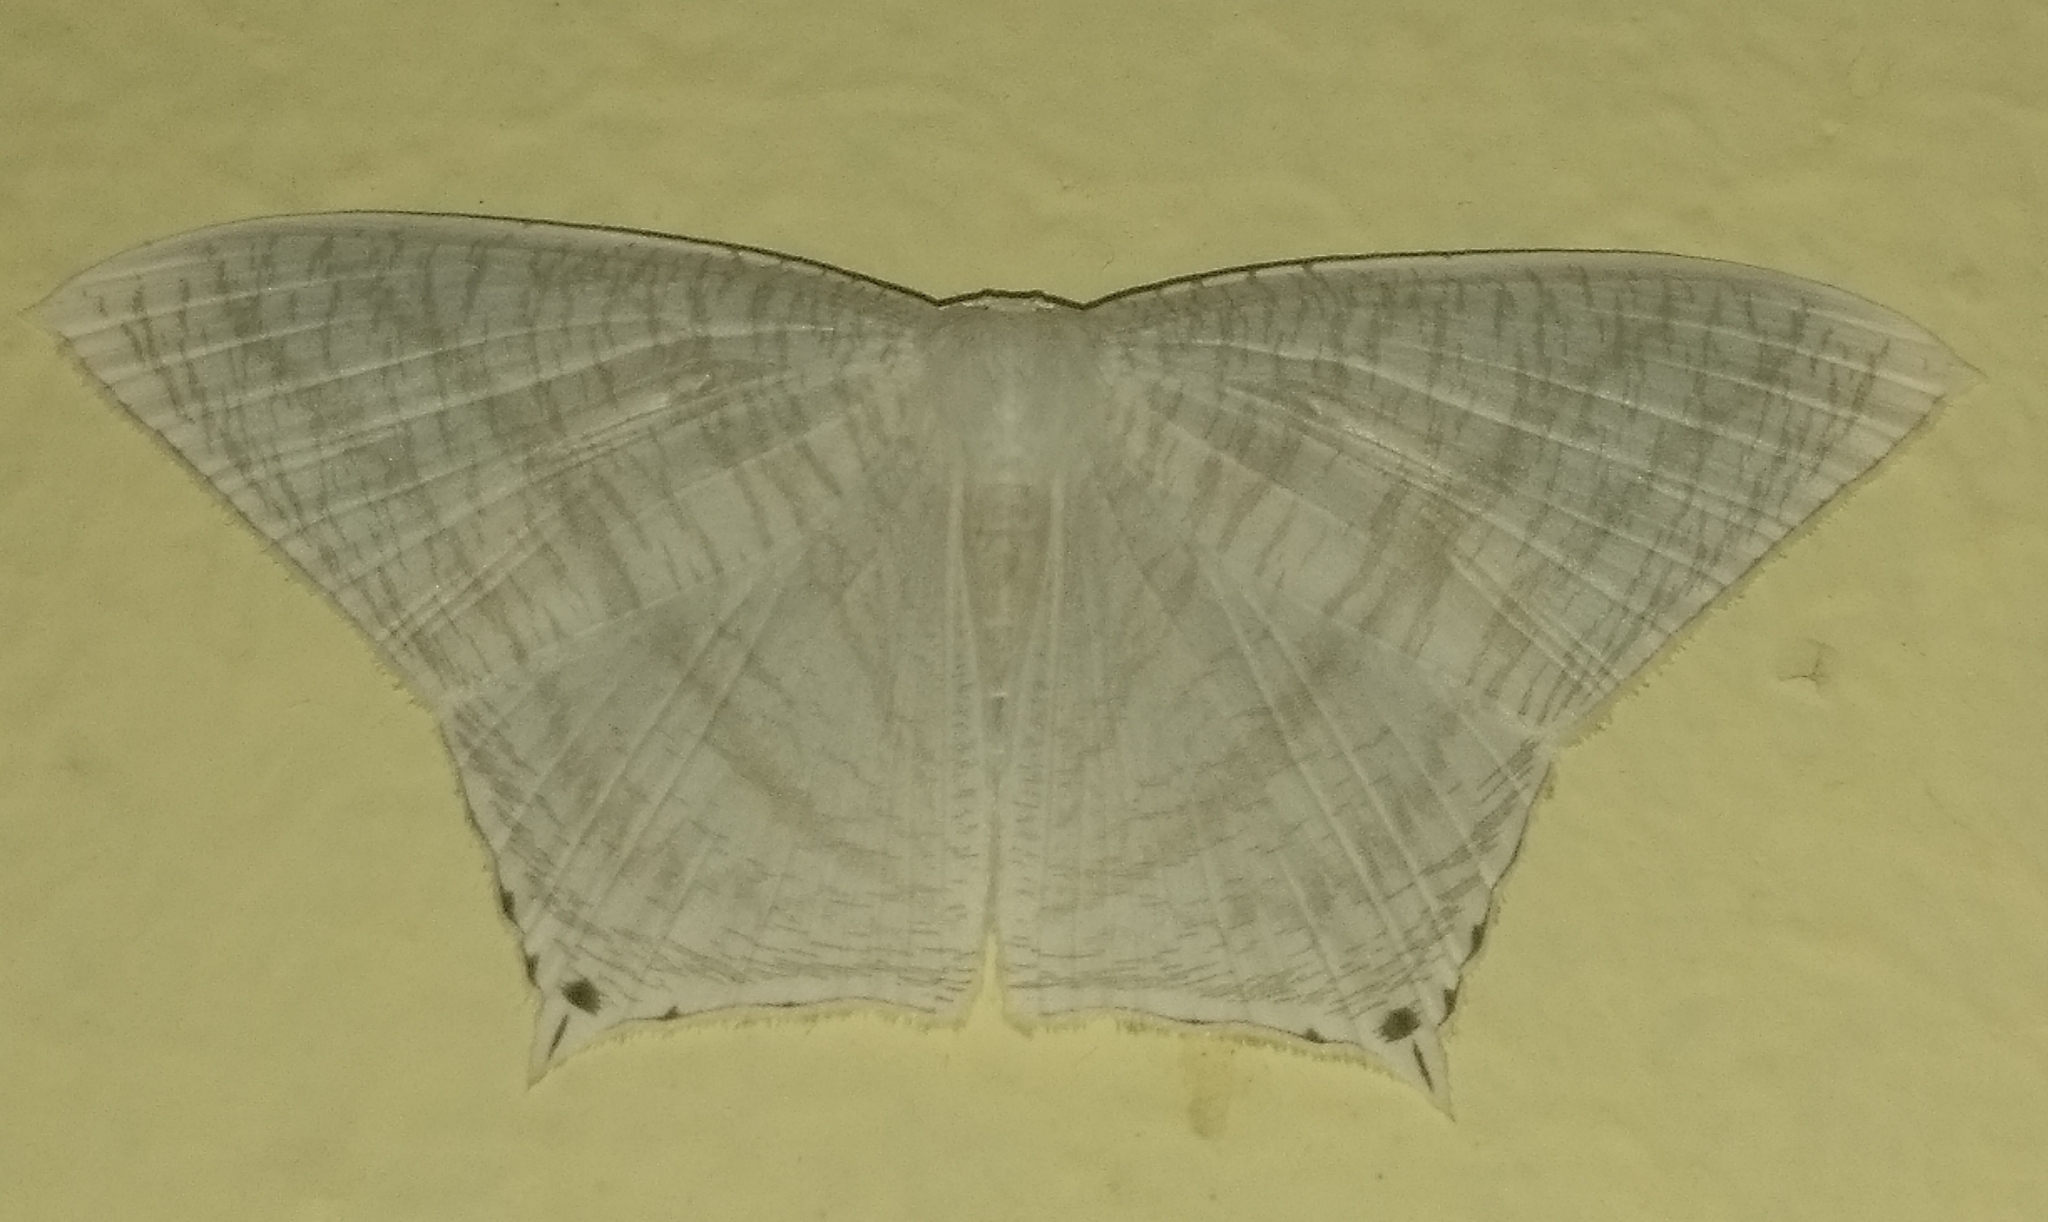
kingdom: Animalia
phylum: Arthropoda
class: Insecta
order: Lepidoptera
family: Uraniidae
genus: Micronia
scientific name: Micronia aculeata
